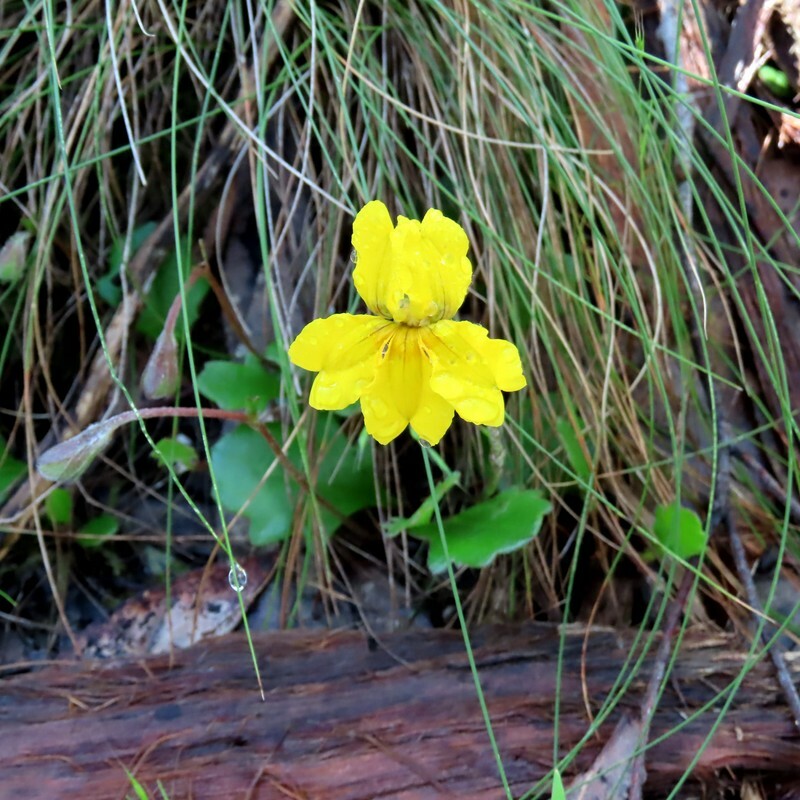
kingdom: Plantae
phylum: Tracheophyta
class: Magnoliopsida
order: Asterales
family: Goodeniaceae
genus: Goodenia
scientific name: Goodenia lanata
